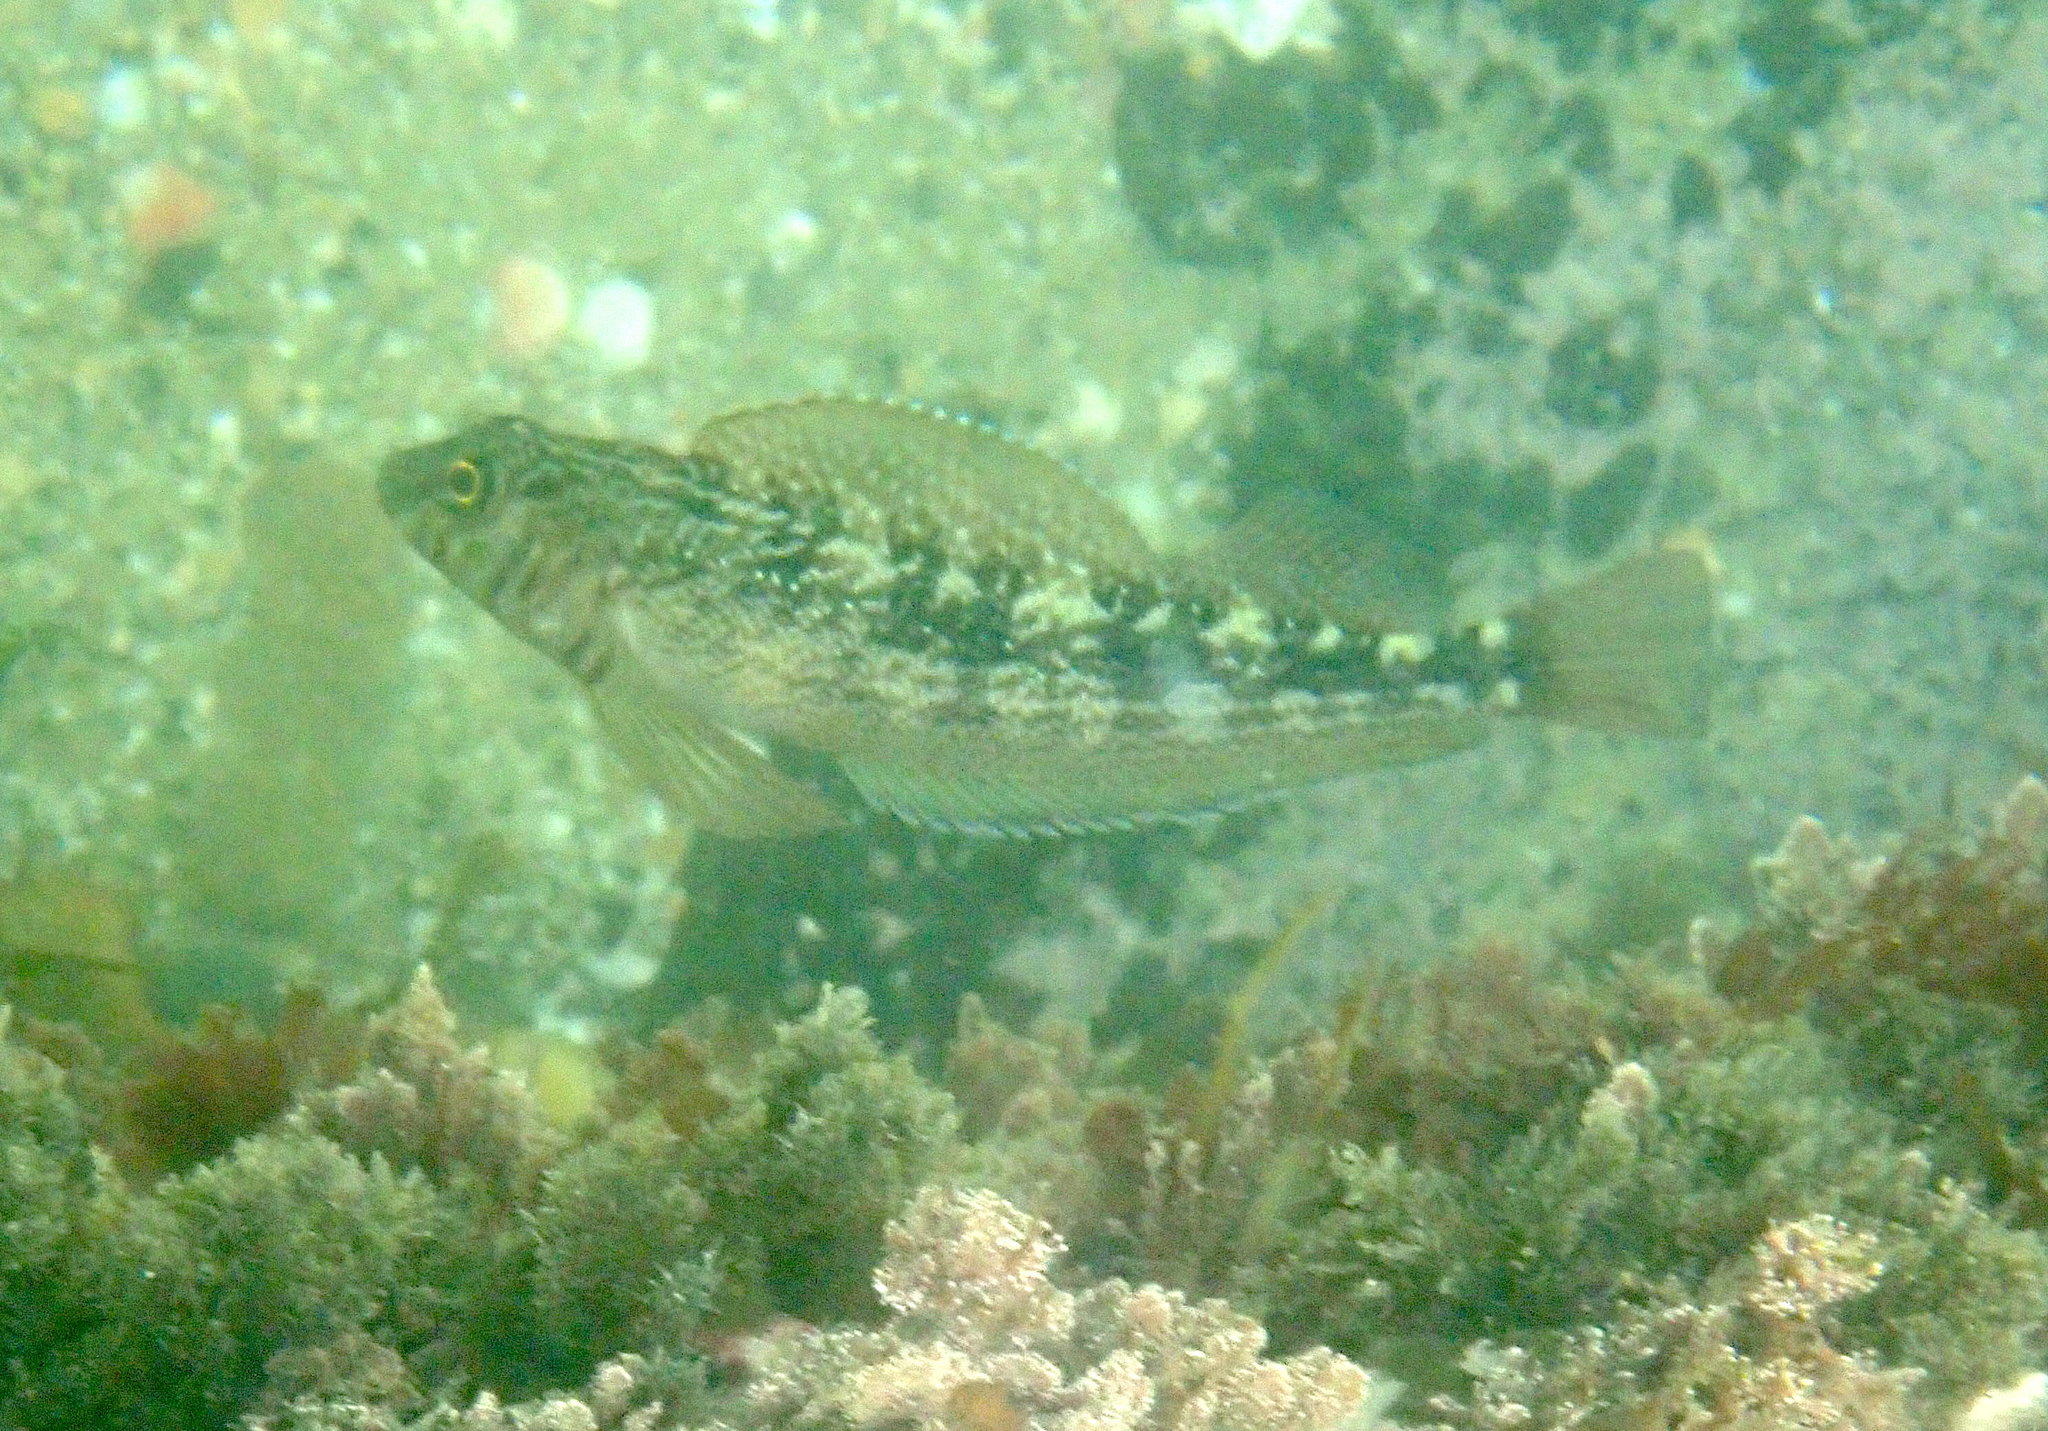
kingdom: Animalia
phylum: Chordata
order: Perciformes
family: Tripterygiidae
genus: Forsterygion
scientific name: Forsterygion varium
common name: Variable triplefin
